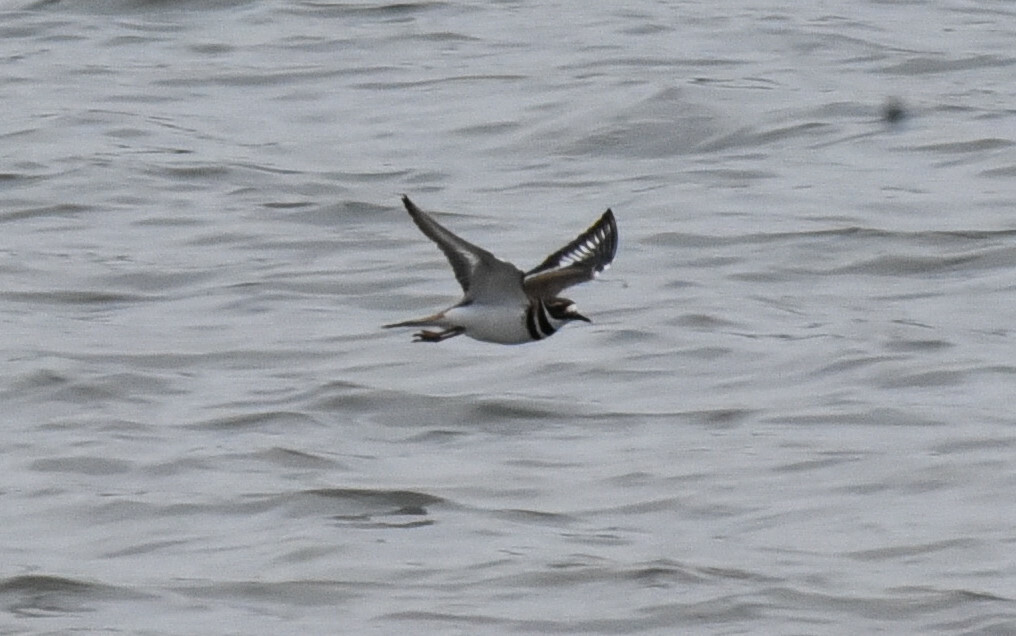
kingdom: Animalia
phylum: Chordata
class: Aves
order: Charadriiformes
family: Charadriidae
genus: Charadrius
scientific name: Charadrius vociferus
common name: Killdeer
